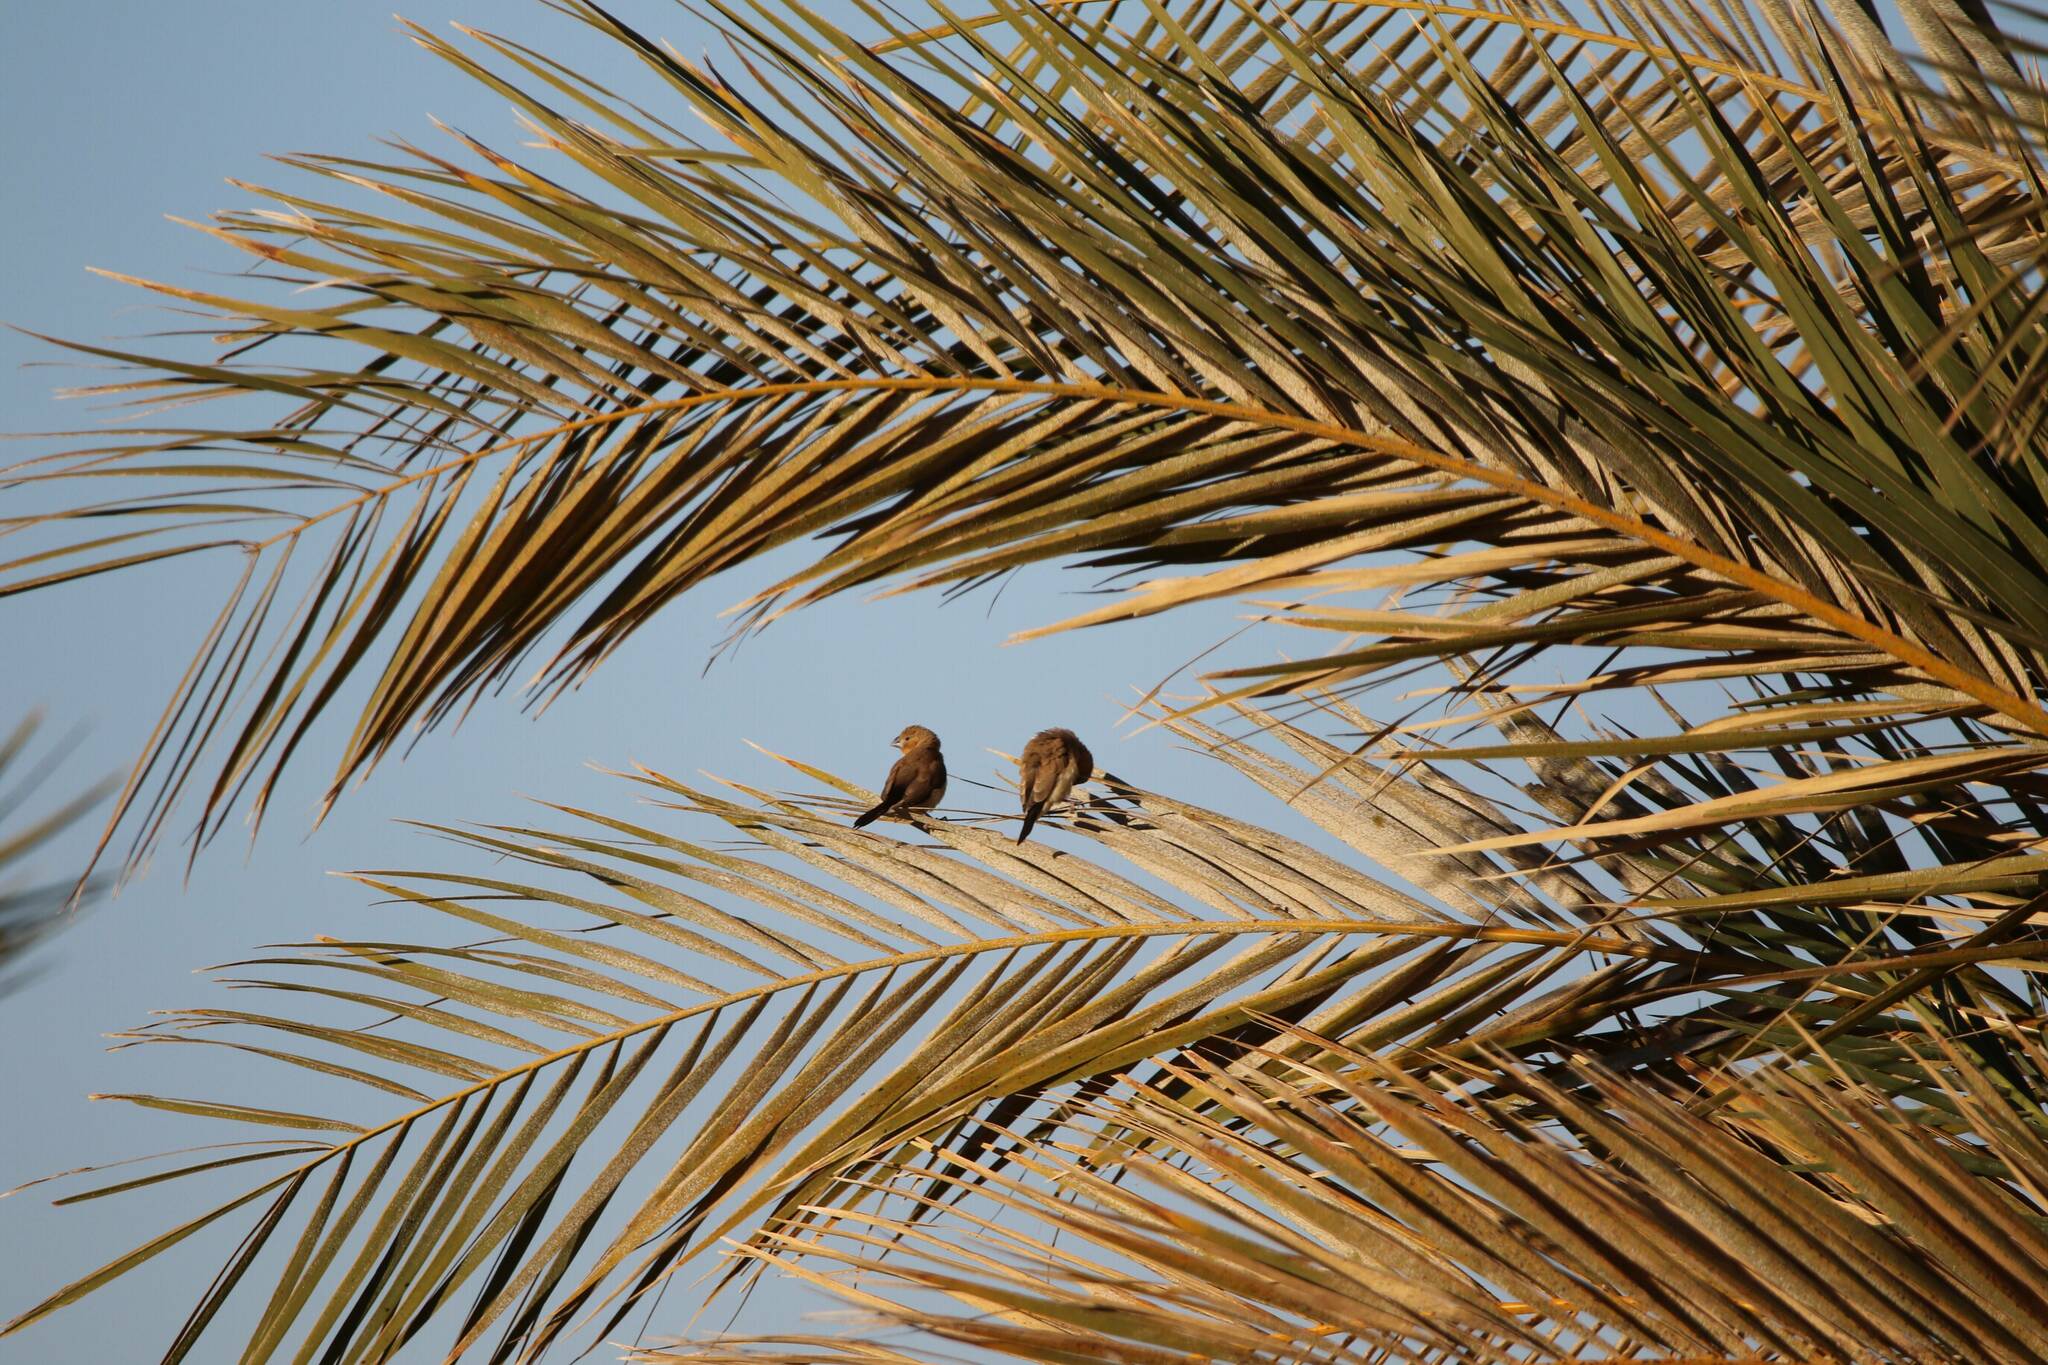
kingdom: Animalia
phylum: Chordata
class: Aves
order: Passeriformes
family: Estrildidae
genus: Euodice
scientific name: Euodice cantans
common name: African silverbill
